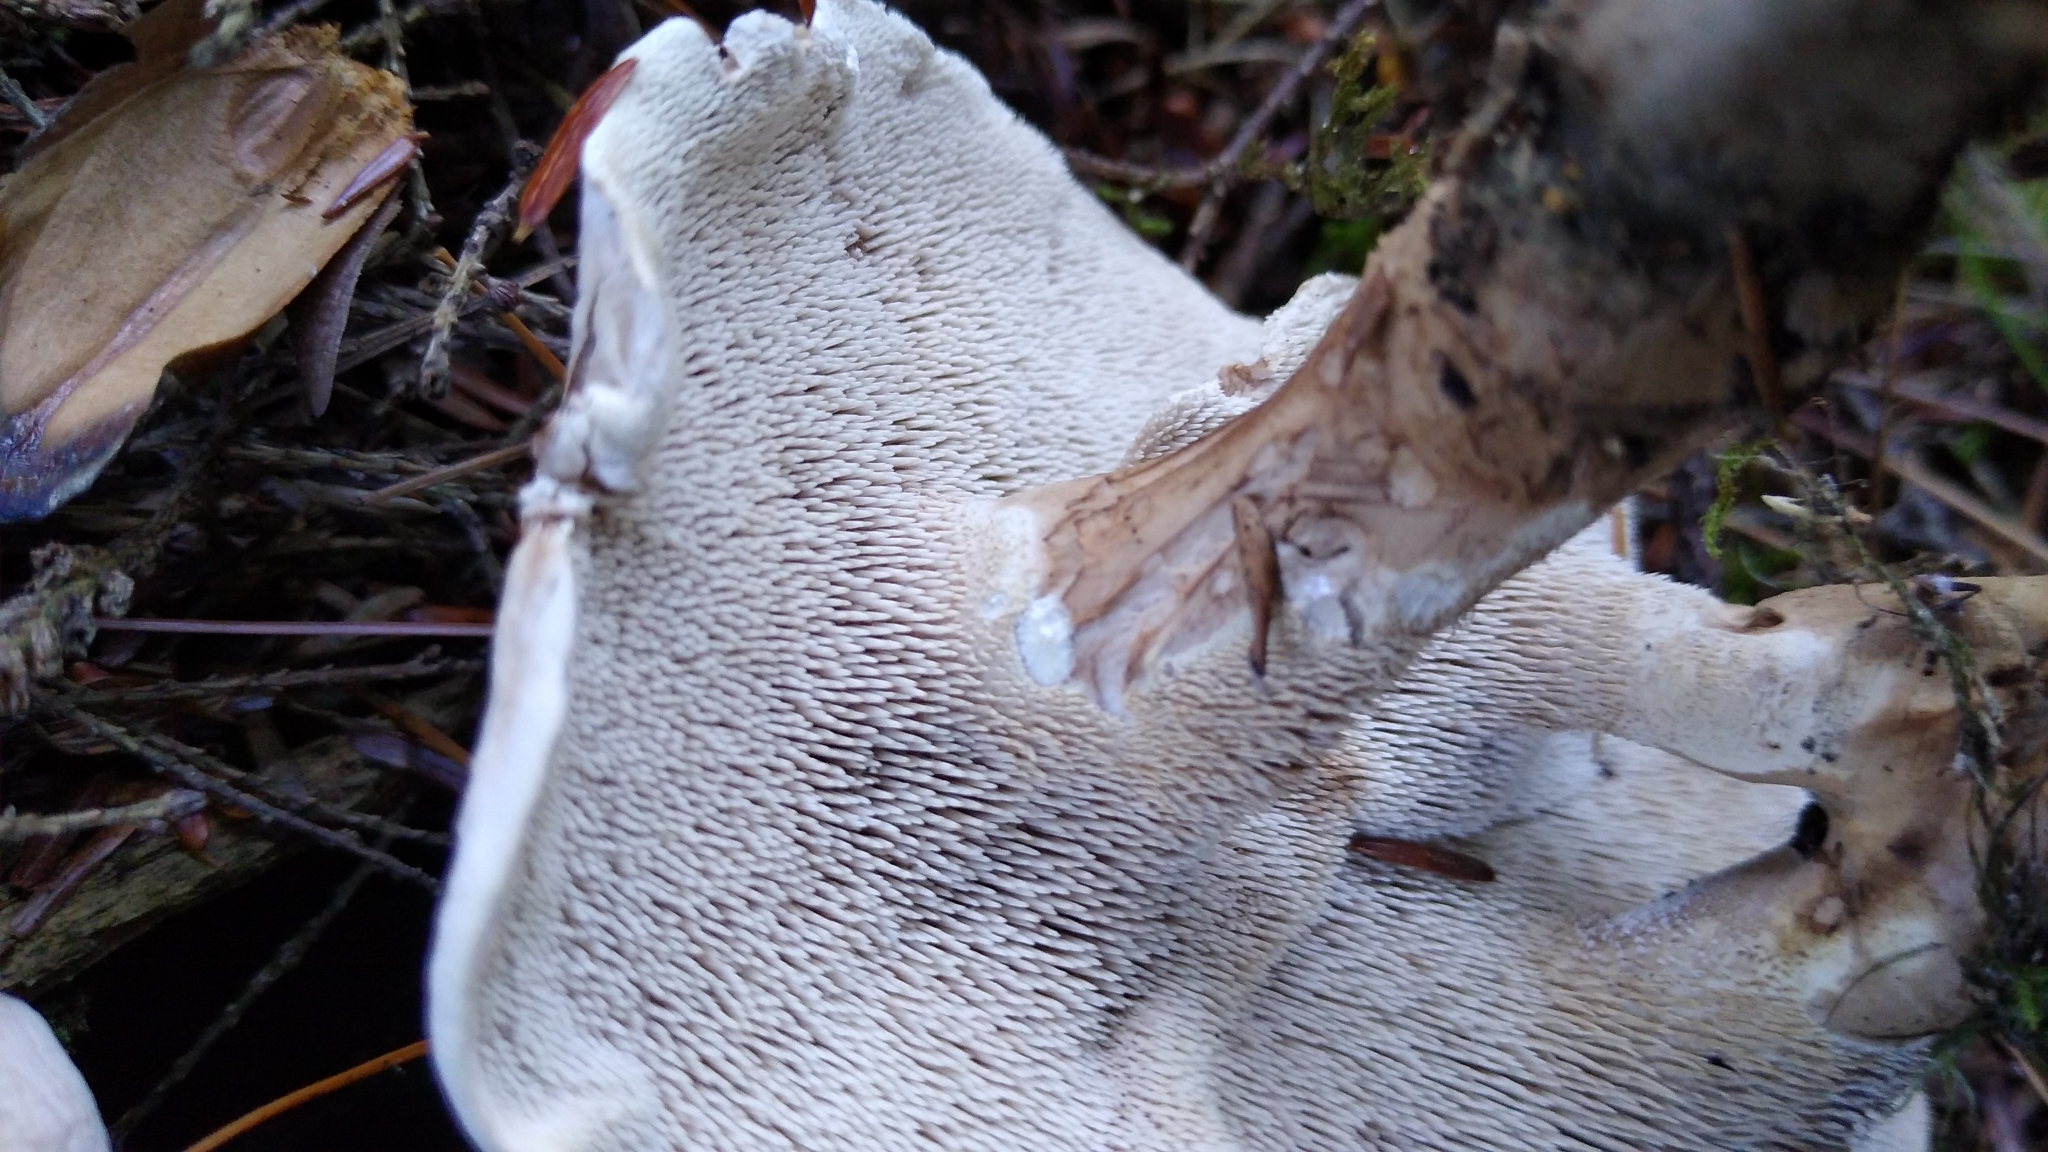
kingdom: Fungi
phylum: Basidiomycota
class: Agaricomycetes
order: Thelephorales
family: Thelephoraceae
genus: Phellodon
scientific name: Phellodon violascens
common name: Spruce tooth
